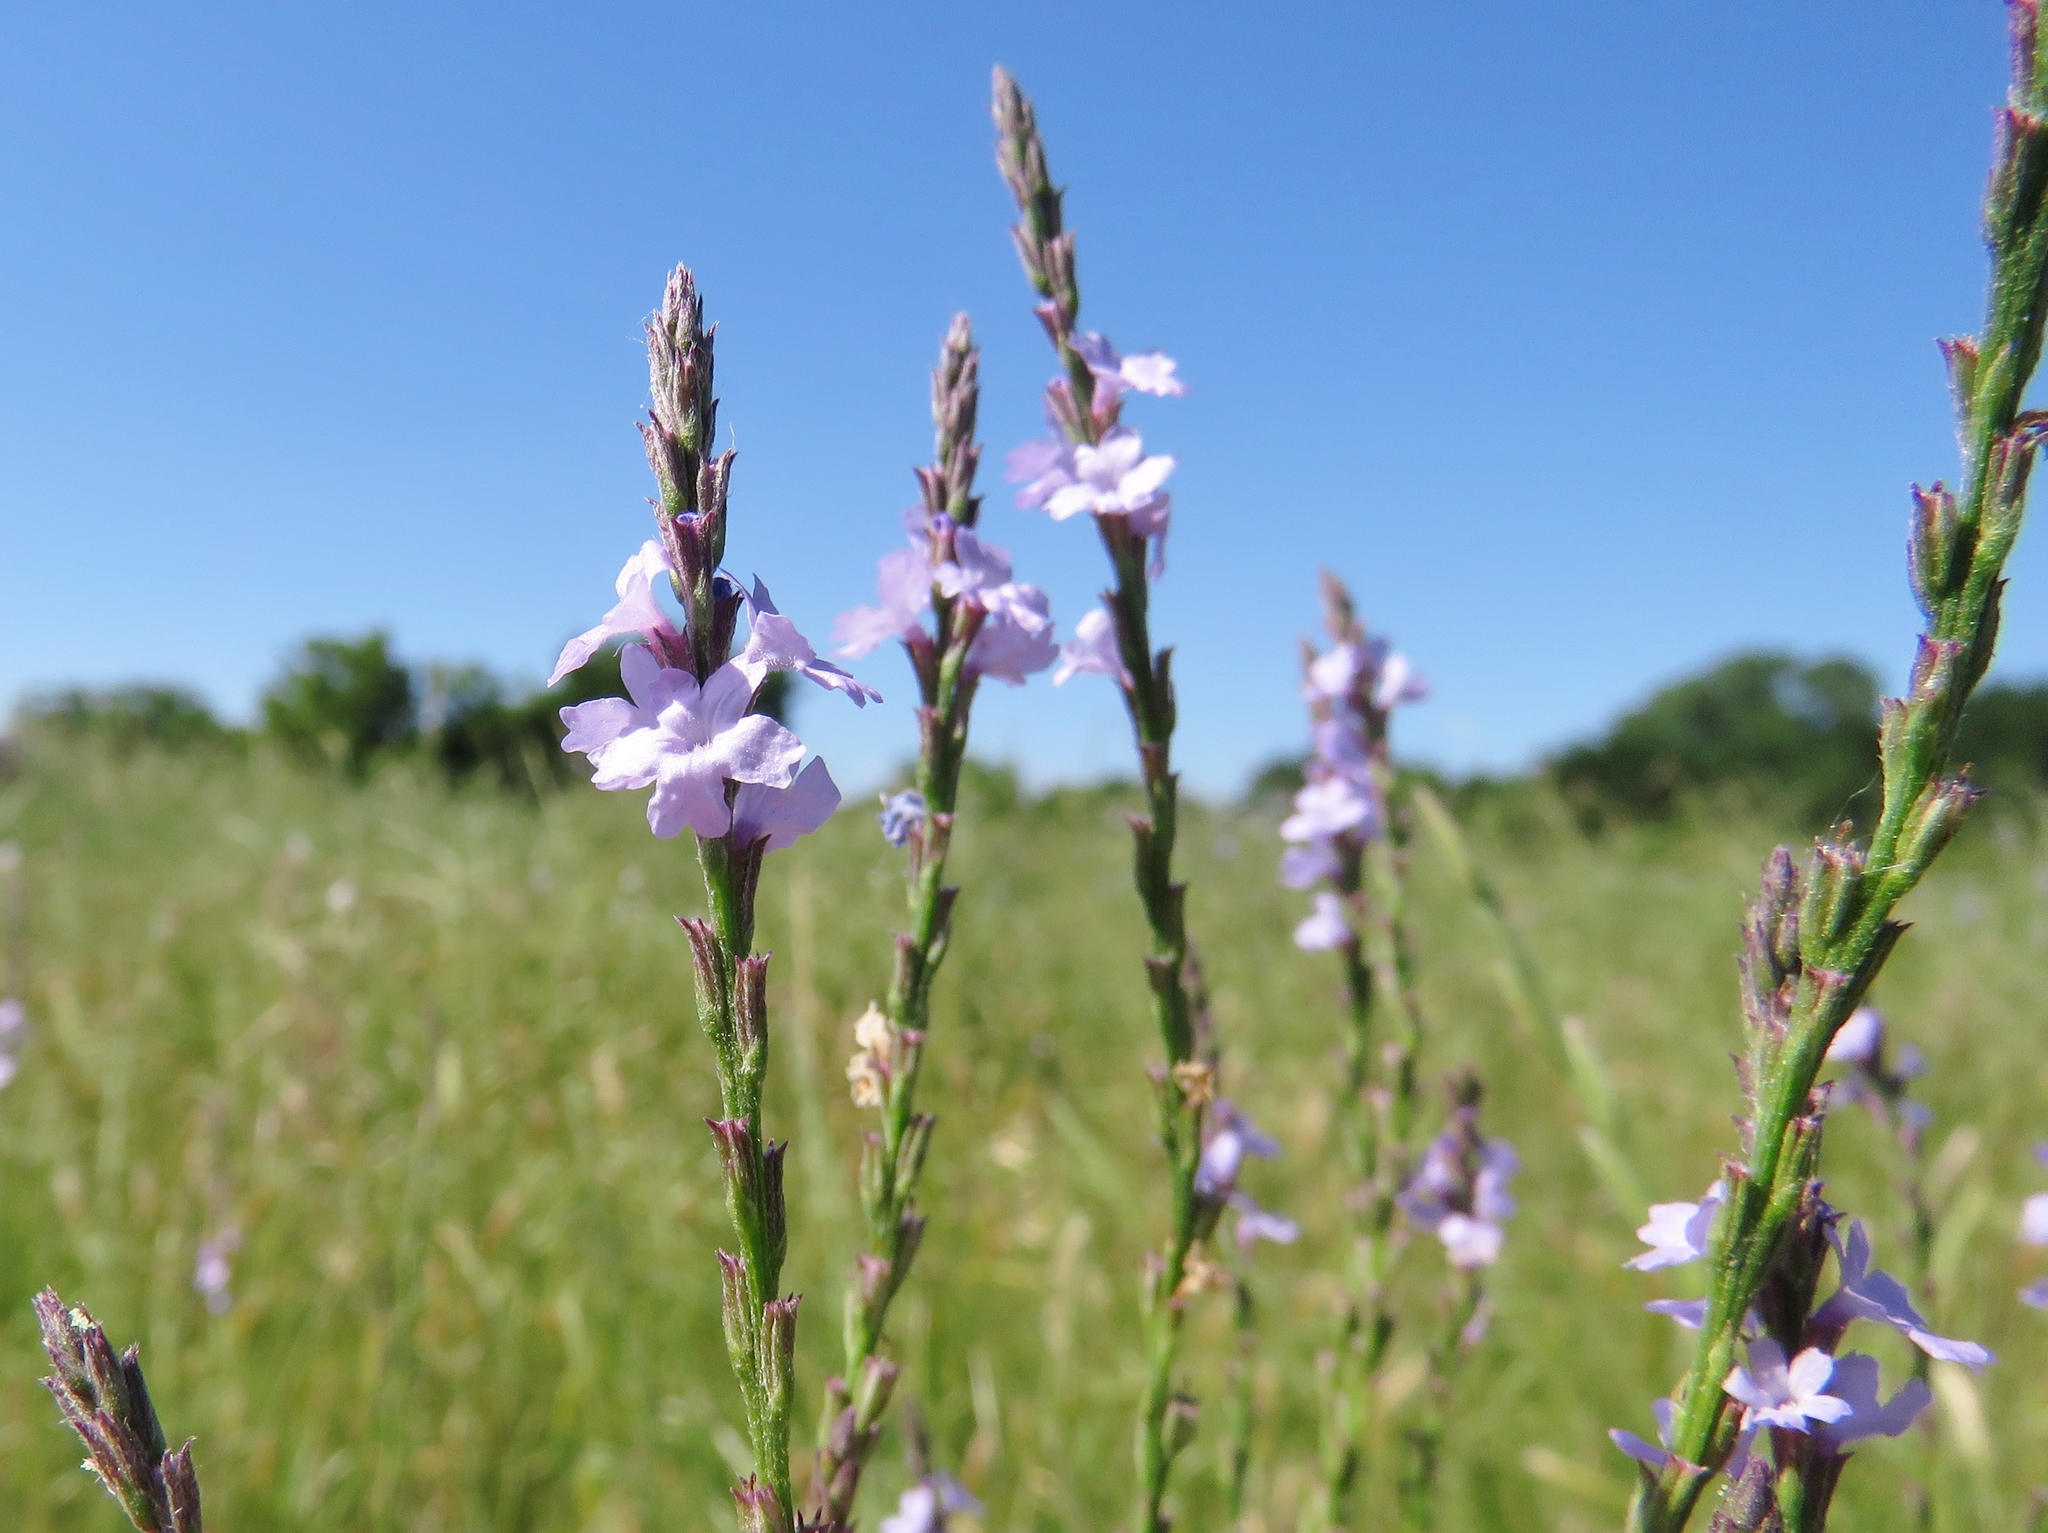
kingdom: Plantae
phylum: Tracheophyta
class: Magnoliopsida
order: Lamiales
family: Verbenaceae
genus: Verbena
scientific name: Verbena halei
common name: Texas vervain
